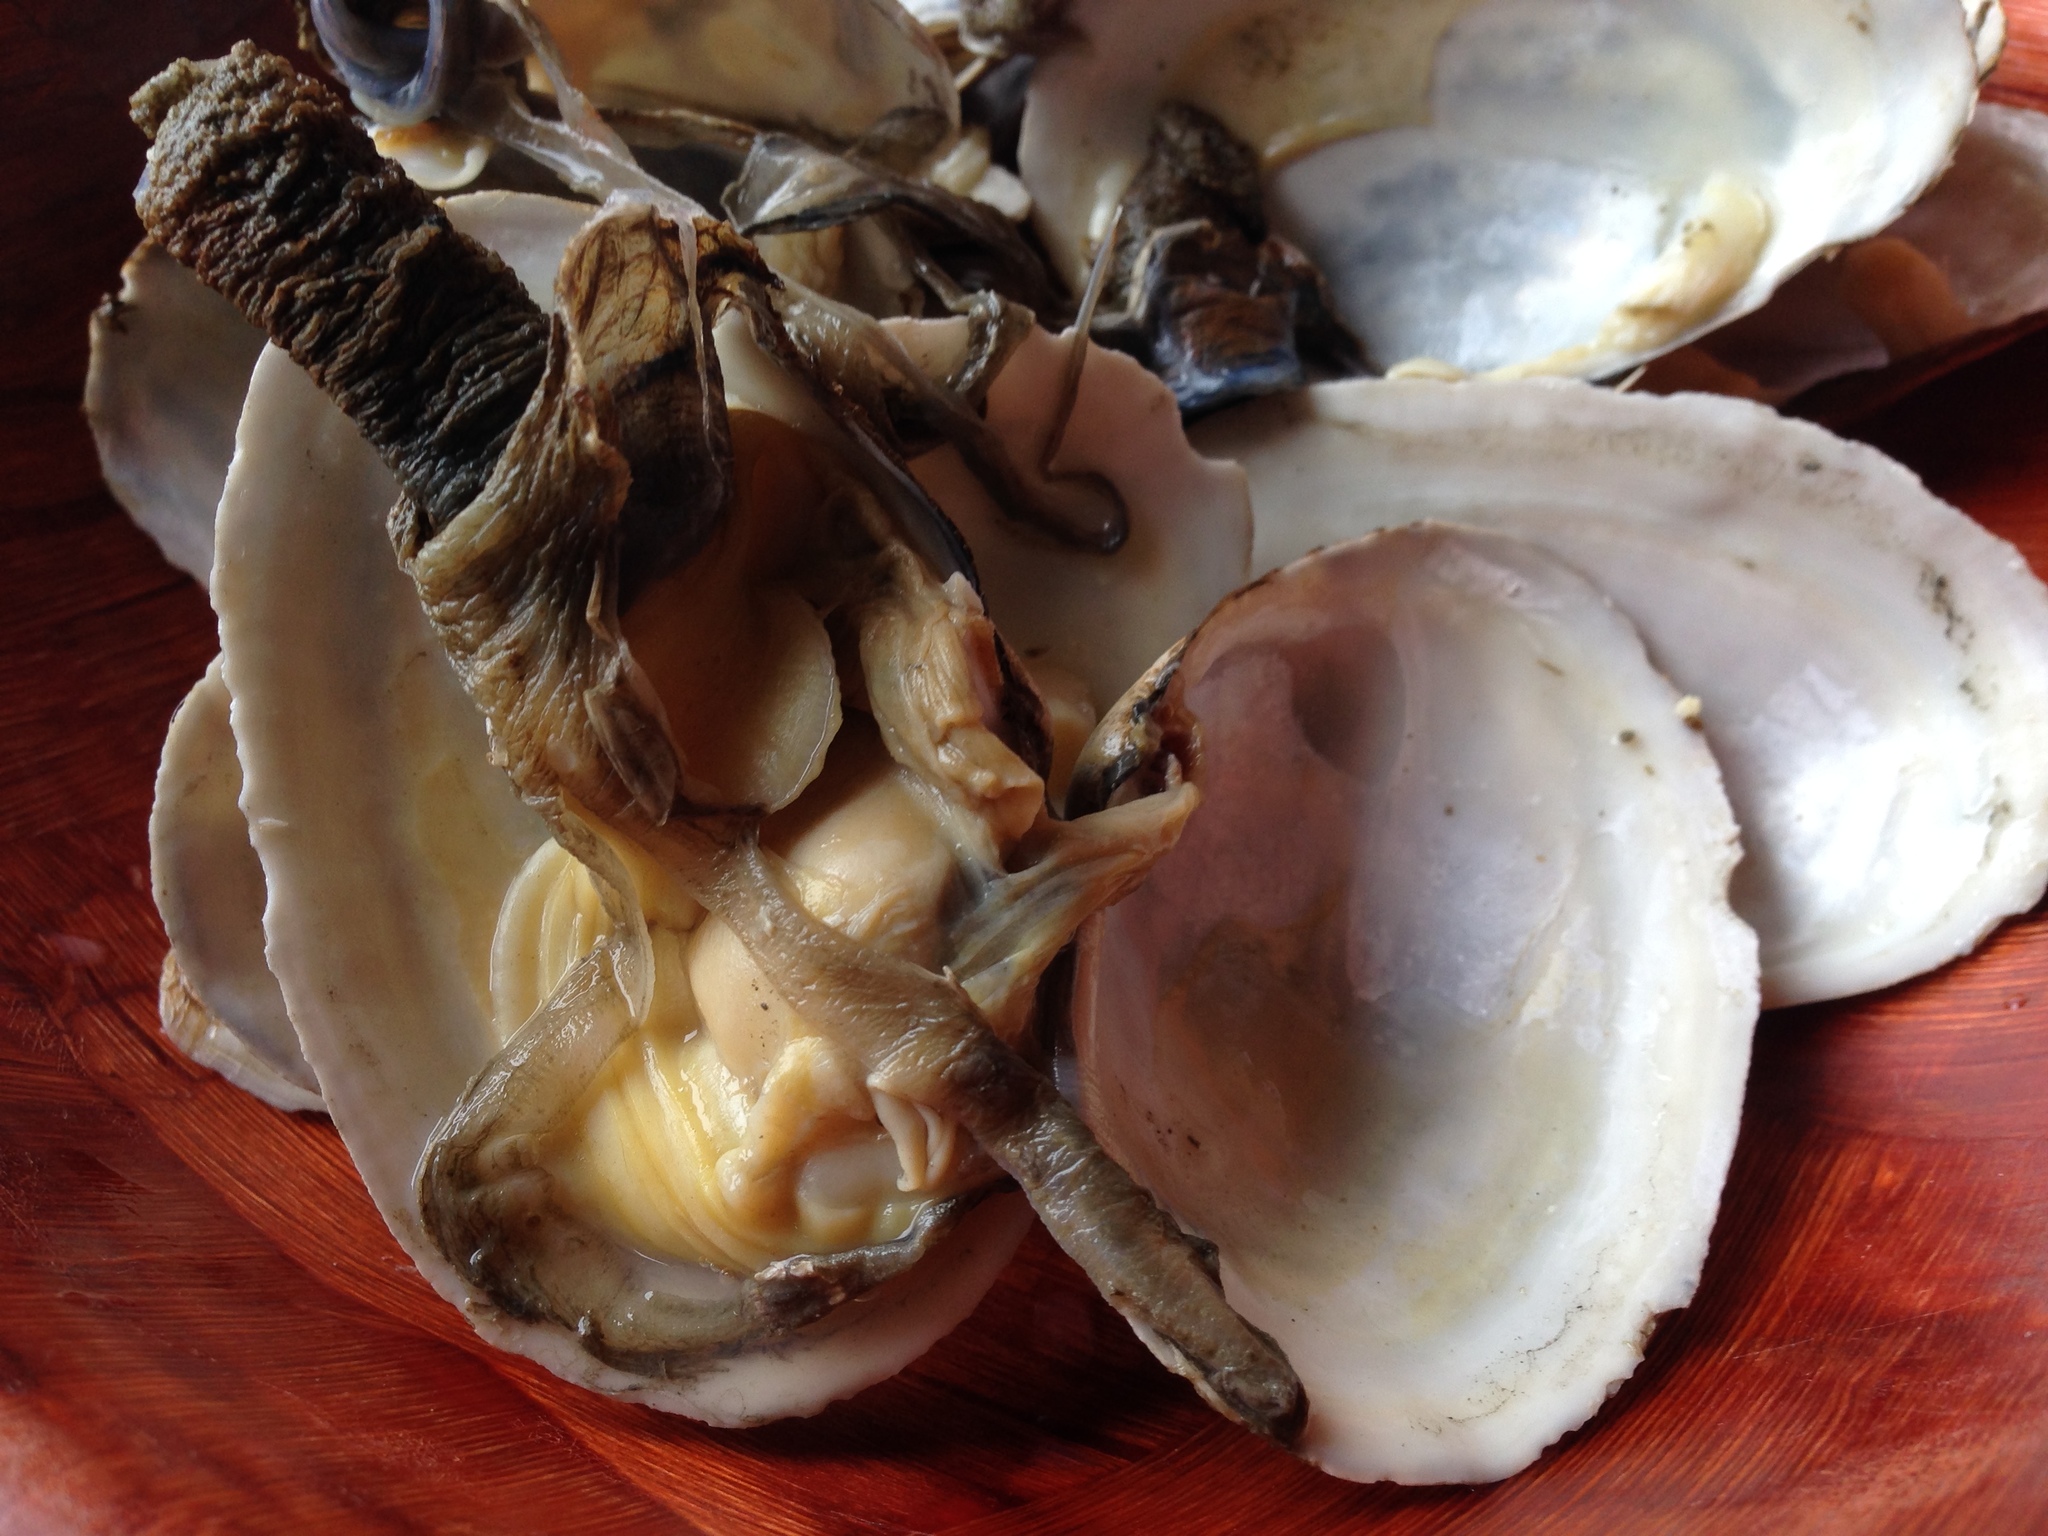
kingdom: Animalia
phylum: Mollusca
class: Bivalvia
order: Myida
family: Myidae
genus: Mya
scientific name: Mya arenaria
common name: Soft-shelled clam
